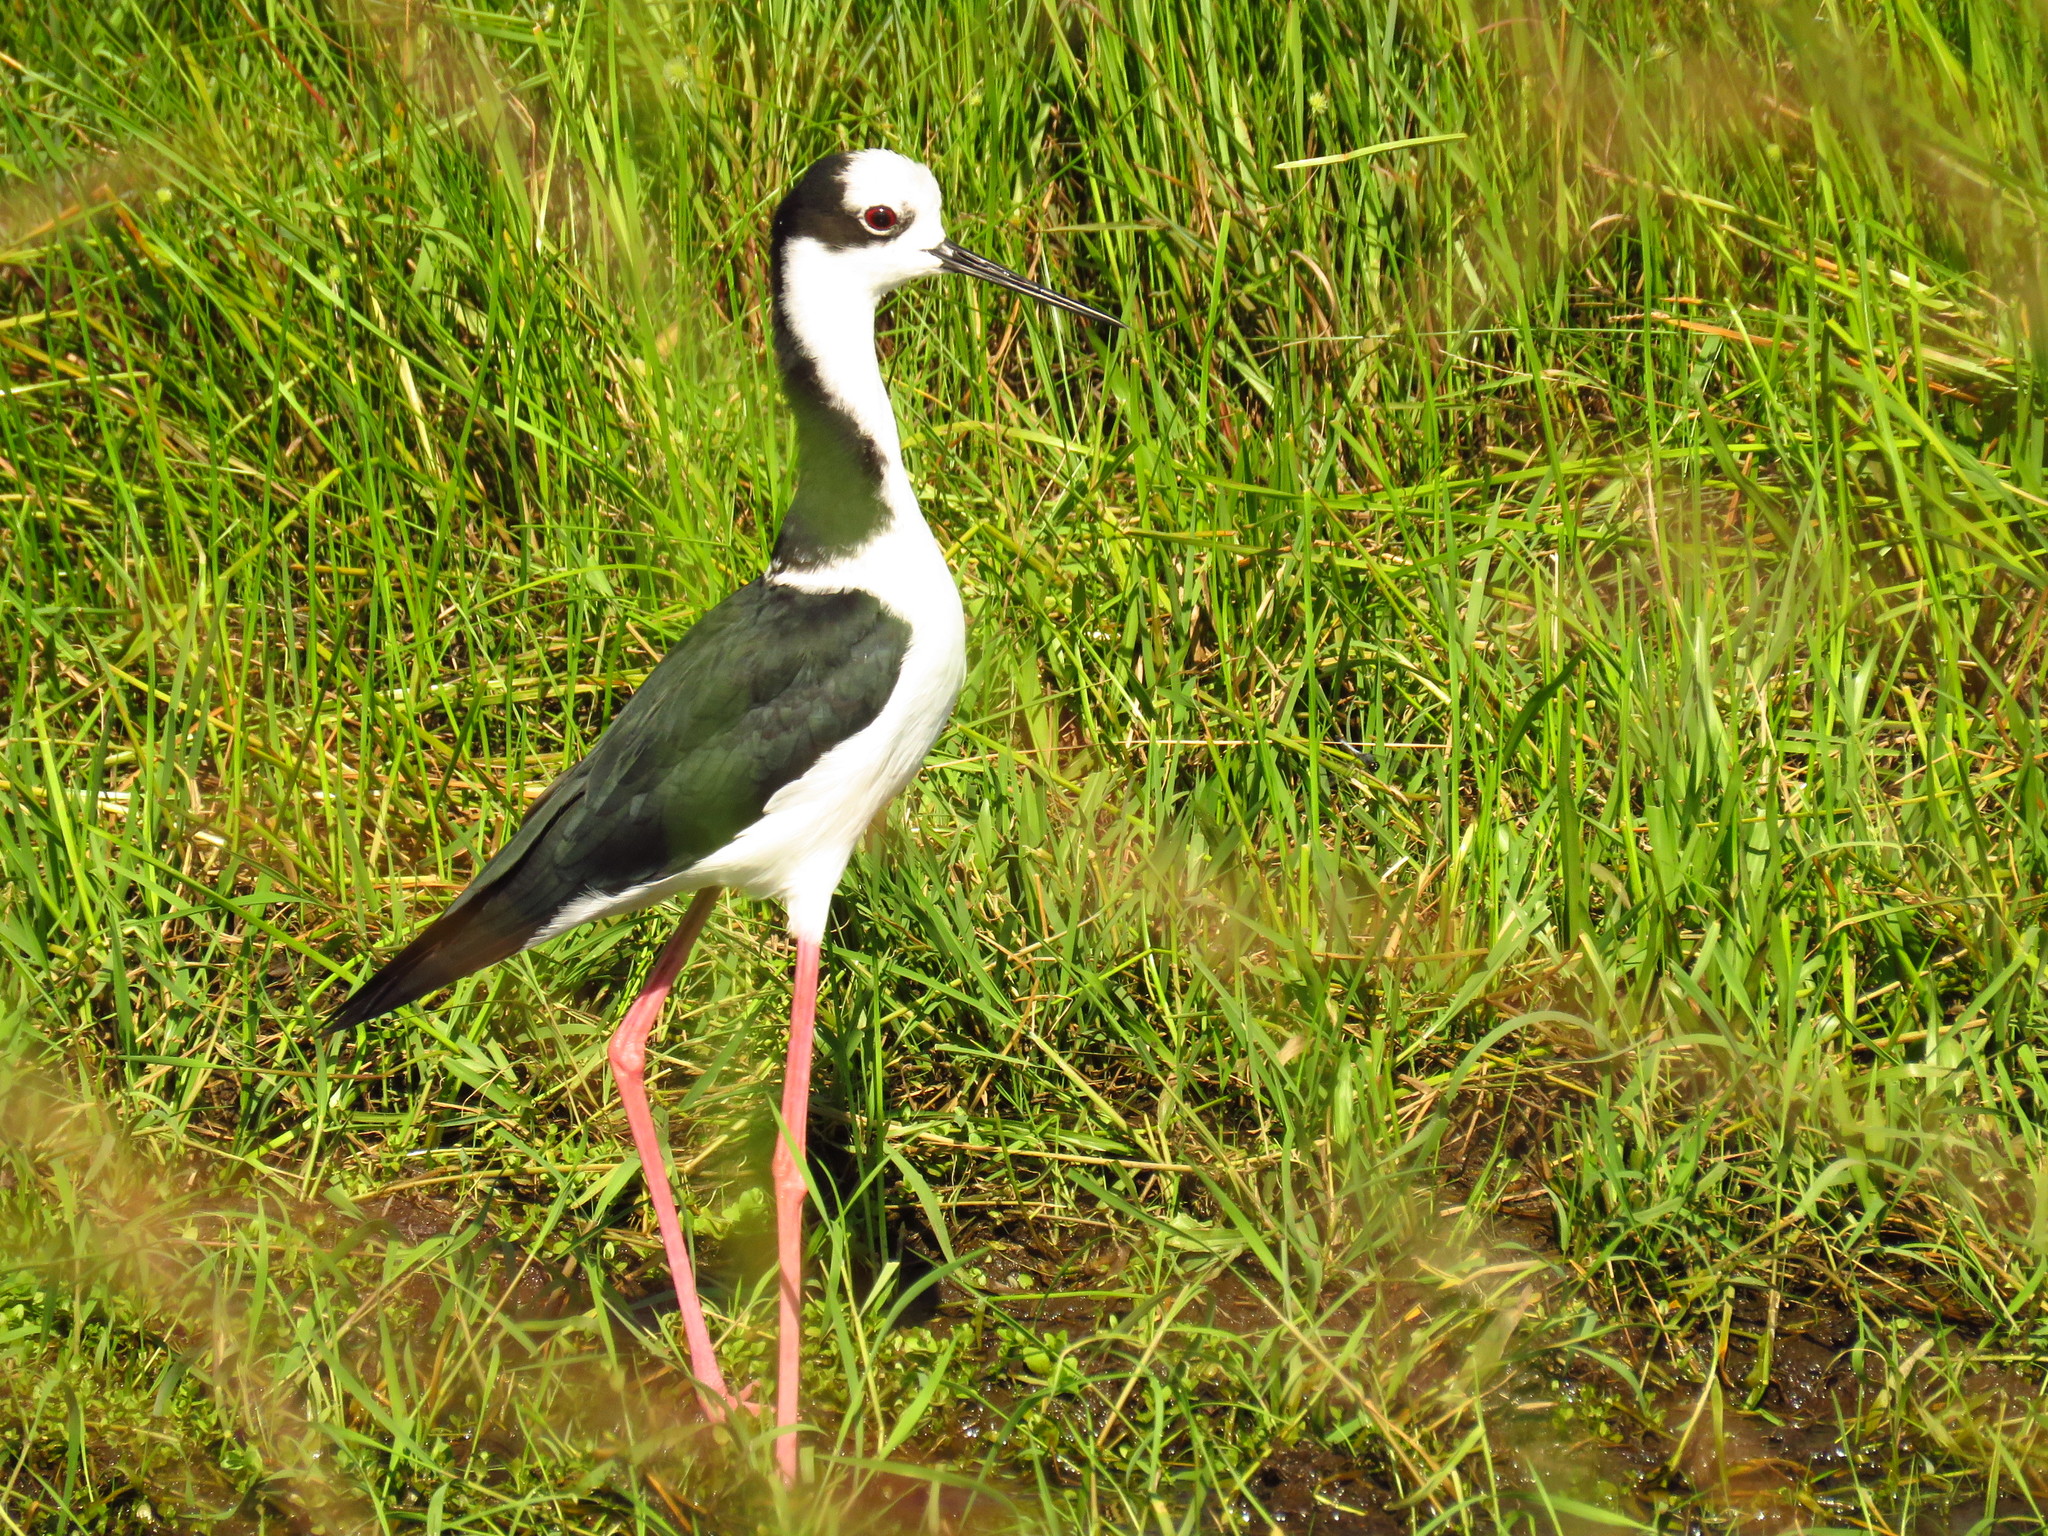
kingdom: Animalia
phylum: Chordata
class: Aves
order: Charadriiformes
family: Recurvirostridae
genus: Himantopus
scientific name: Himantopus mexicanus
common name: Black-necked stilt
